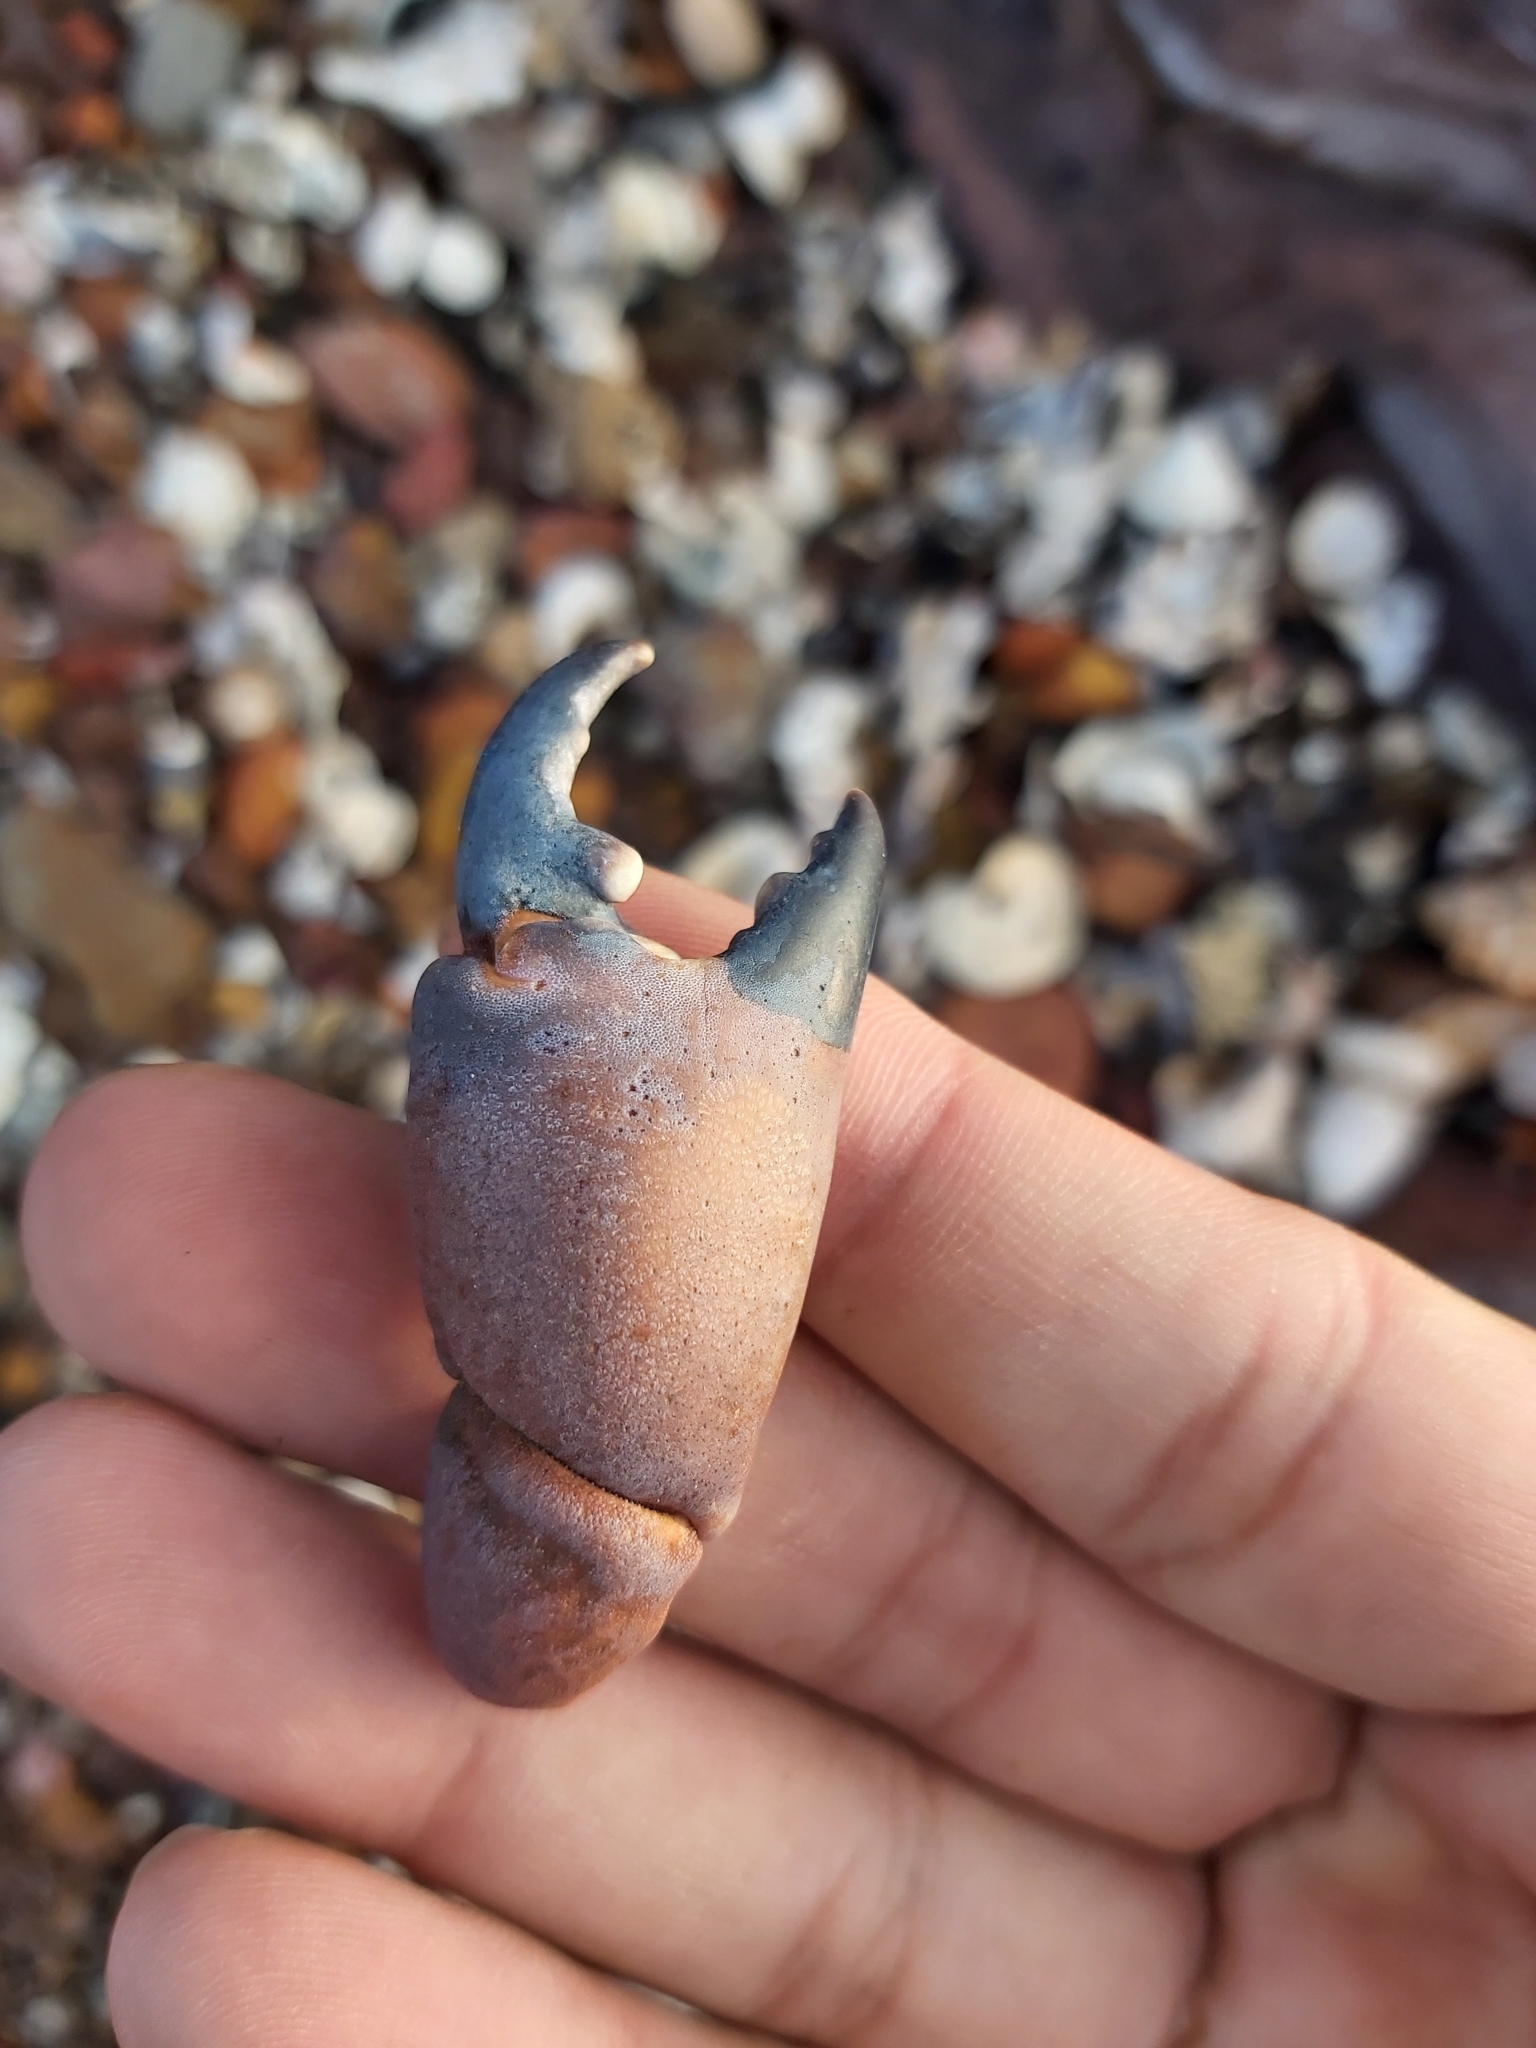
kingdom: Animalia
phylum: Arthropoda
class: Malacostraca
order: Decapoda
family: Oziidae
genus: Ozius
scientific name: Ozius truncatus
